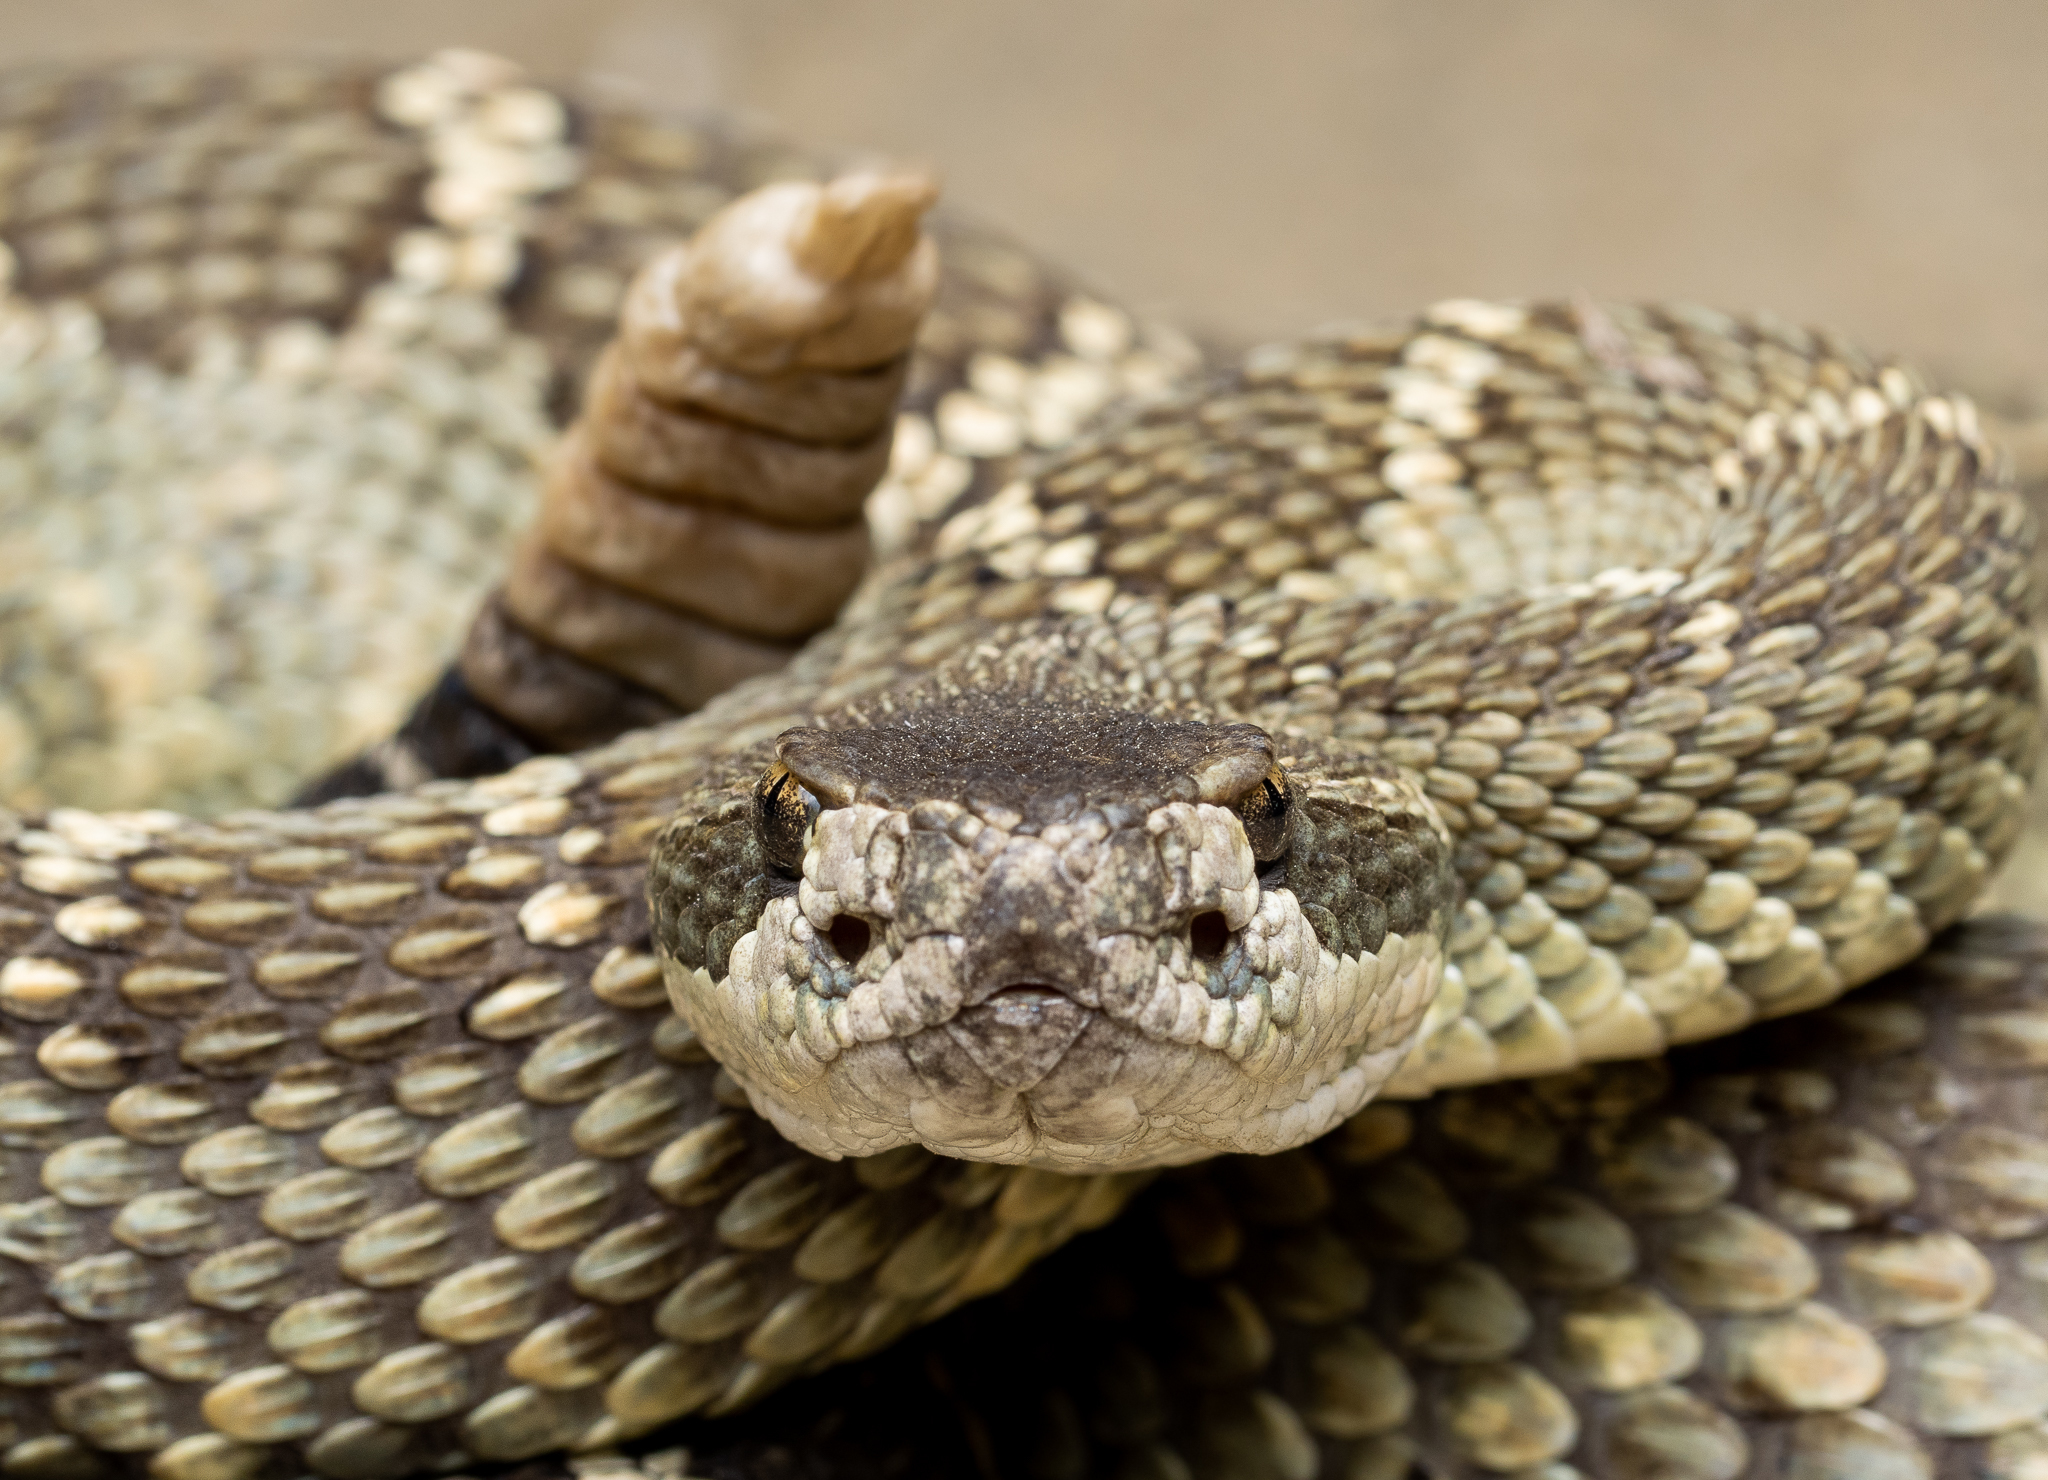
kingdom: Animalia
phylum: Chordata
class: Squamata
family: Viperidae
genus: Crotalus
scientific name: Crotalus oreganus
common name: Abyssus
